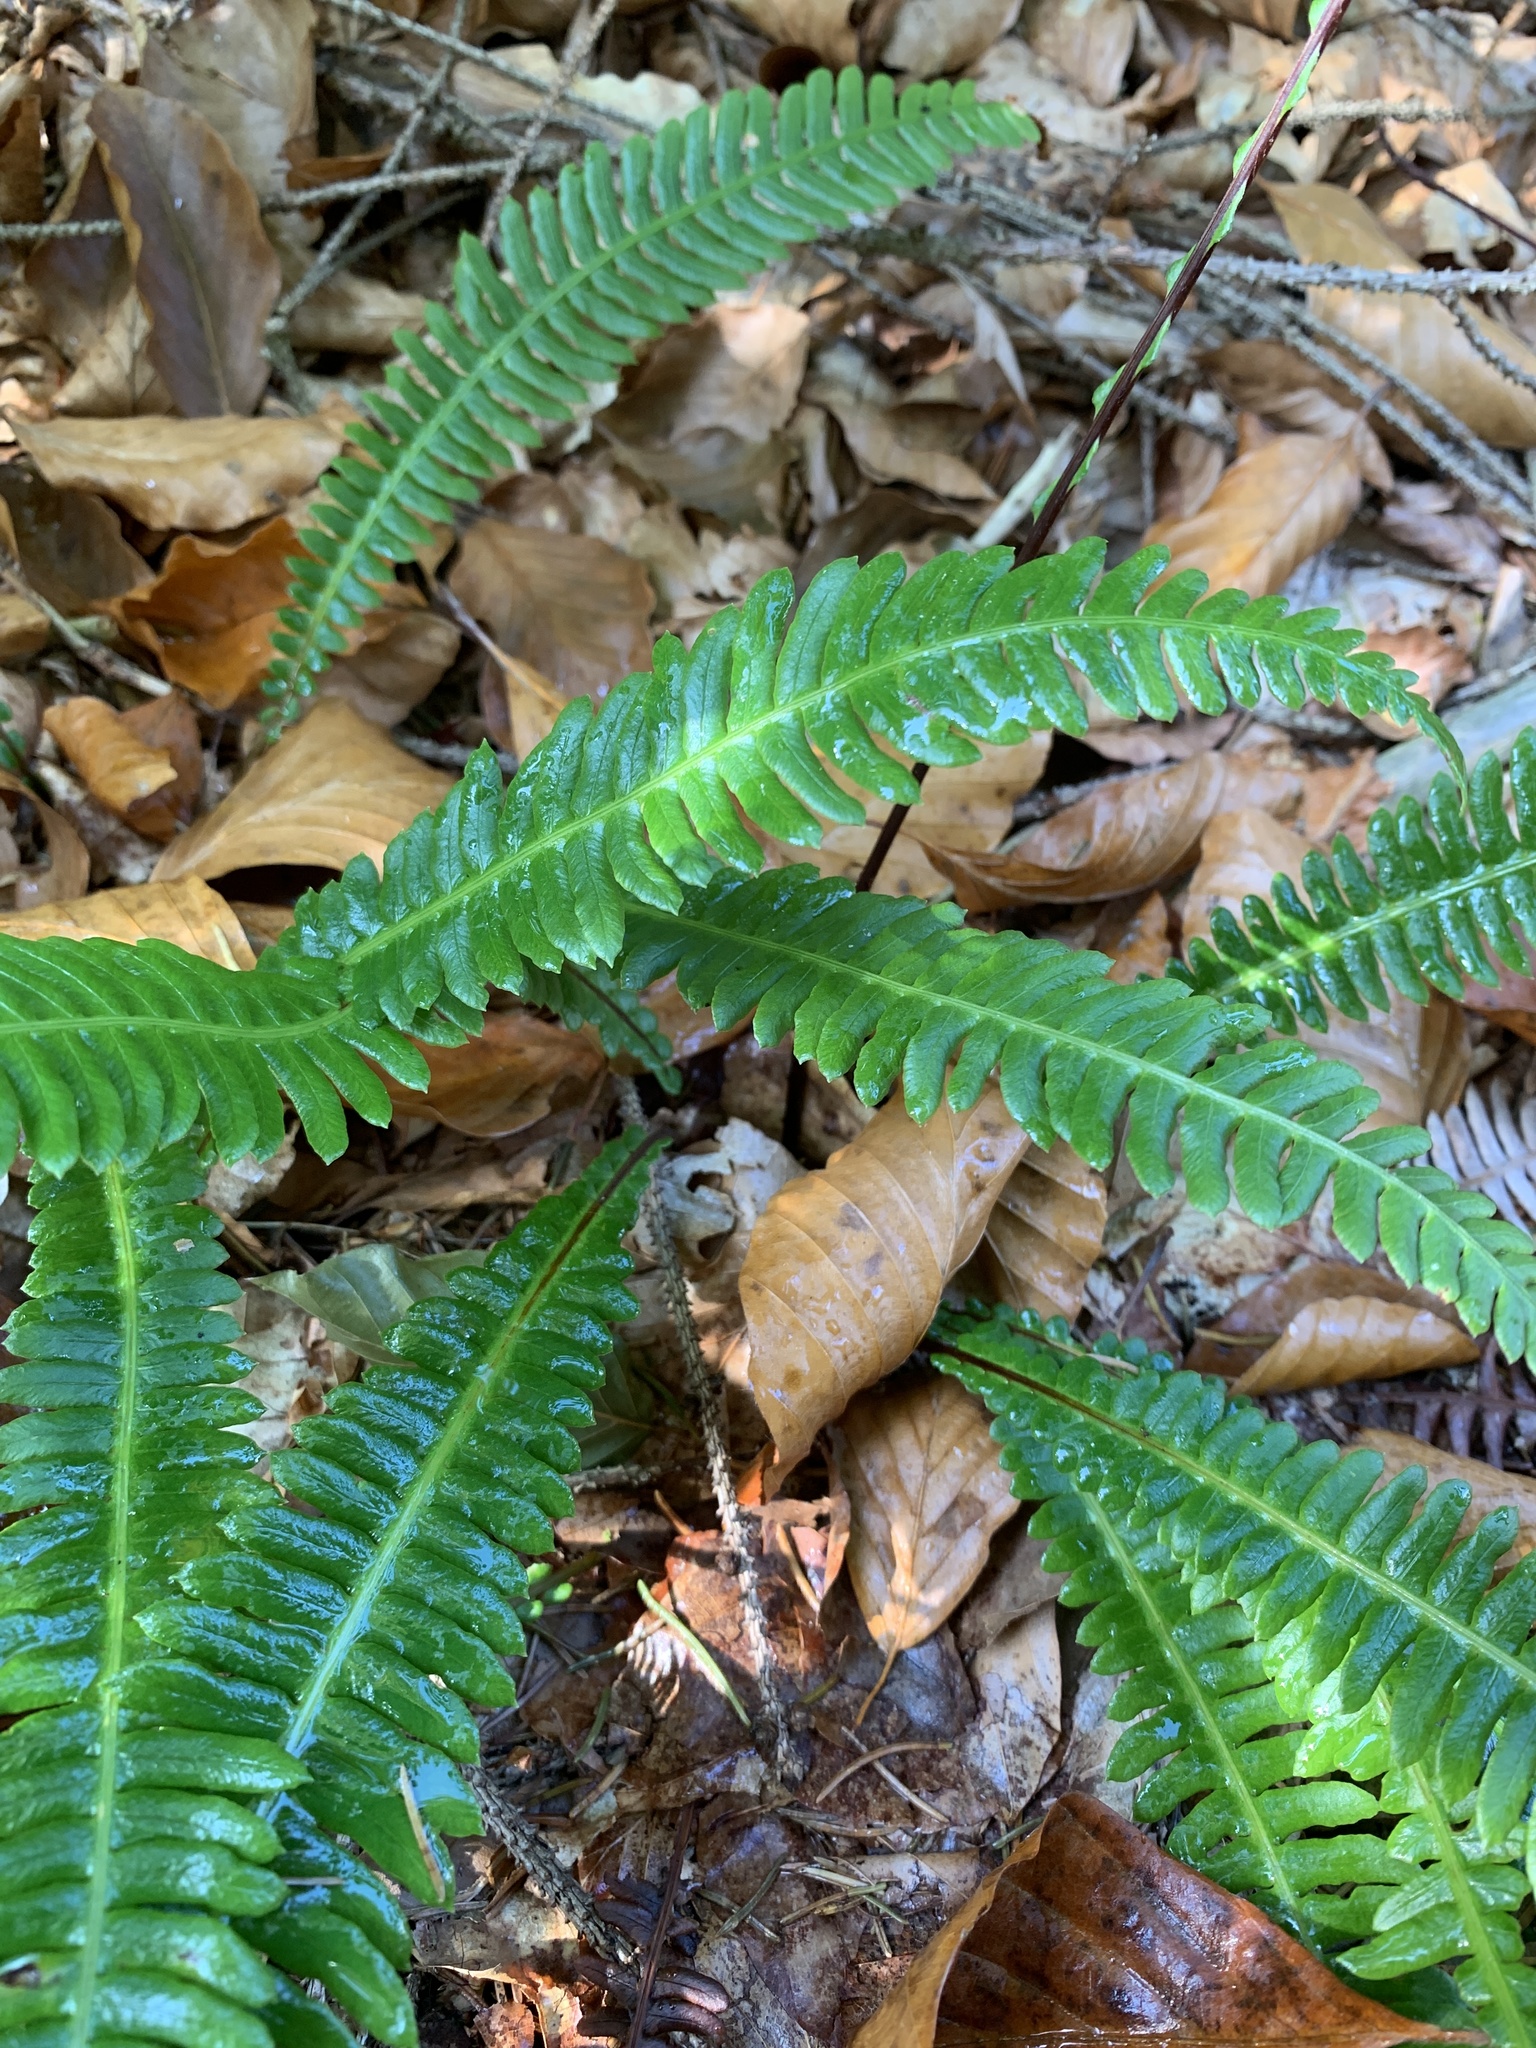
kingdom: Plantae
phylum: Tracheophyta
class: Polypodiopsida
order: Polypodiales
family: Blechnaceae
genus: Struthiopteris
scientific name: Struthiopteris spicant
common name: Deer fern
